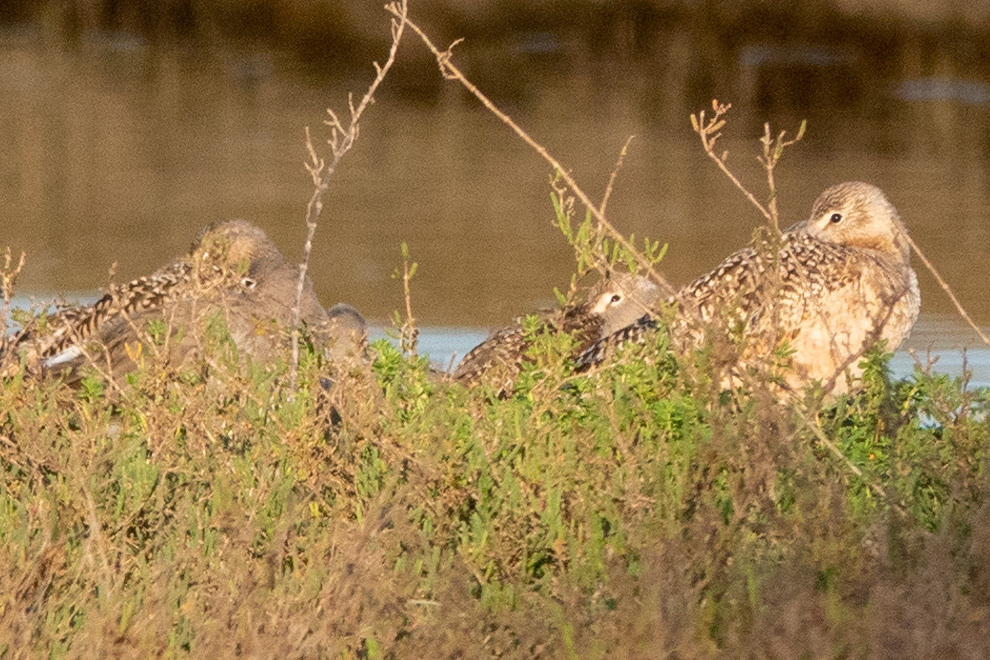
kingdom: Animalia
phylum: Chordata
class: Aves
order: Charadriiformes
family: Scolopacidae
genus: Limosa
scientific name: Limosa fedoa
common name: Marbled godwit
